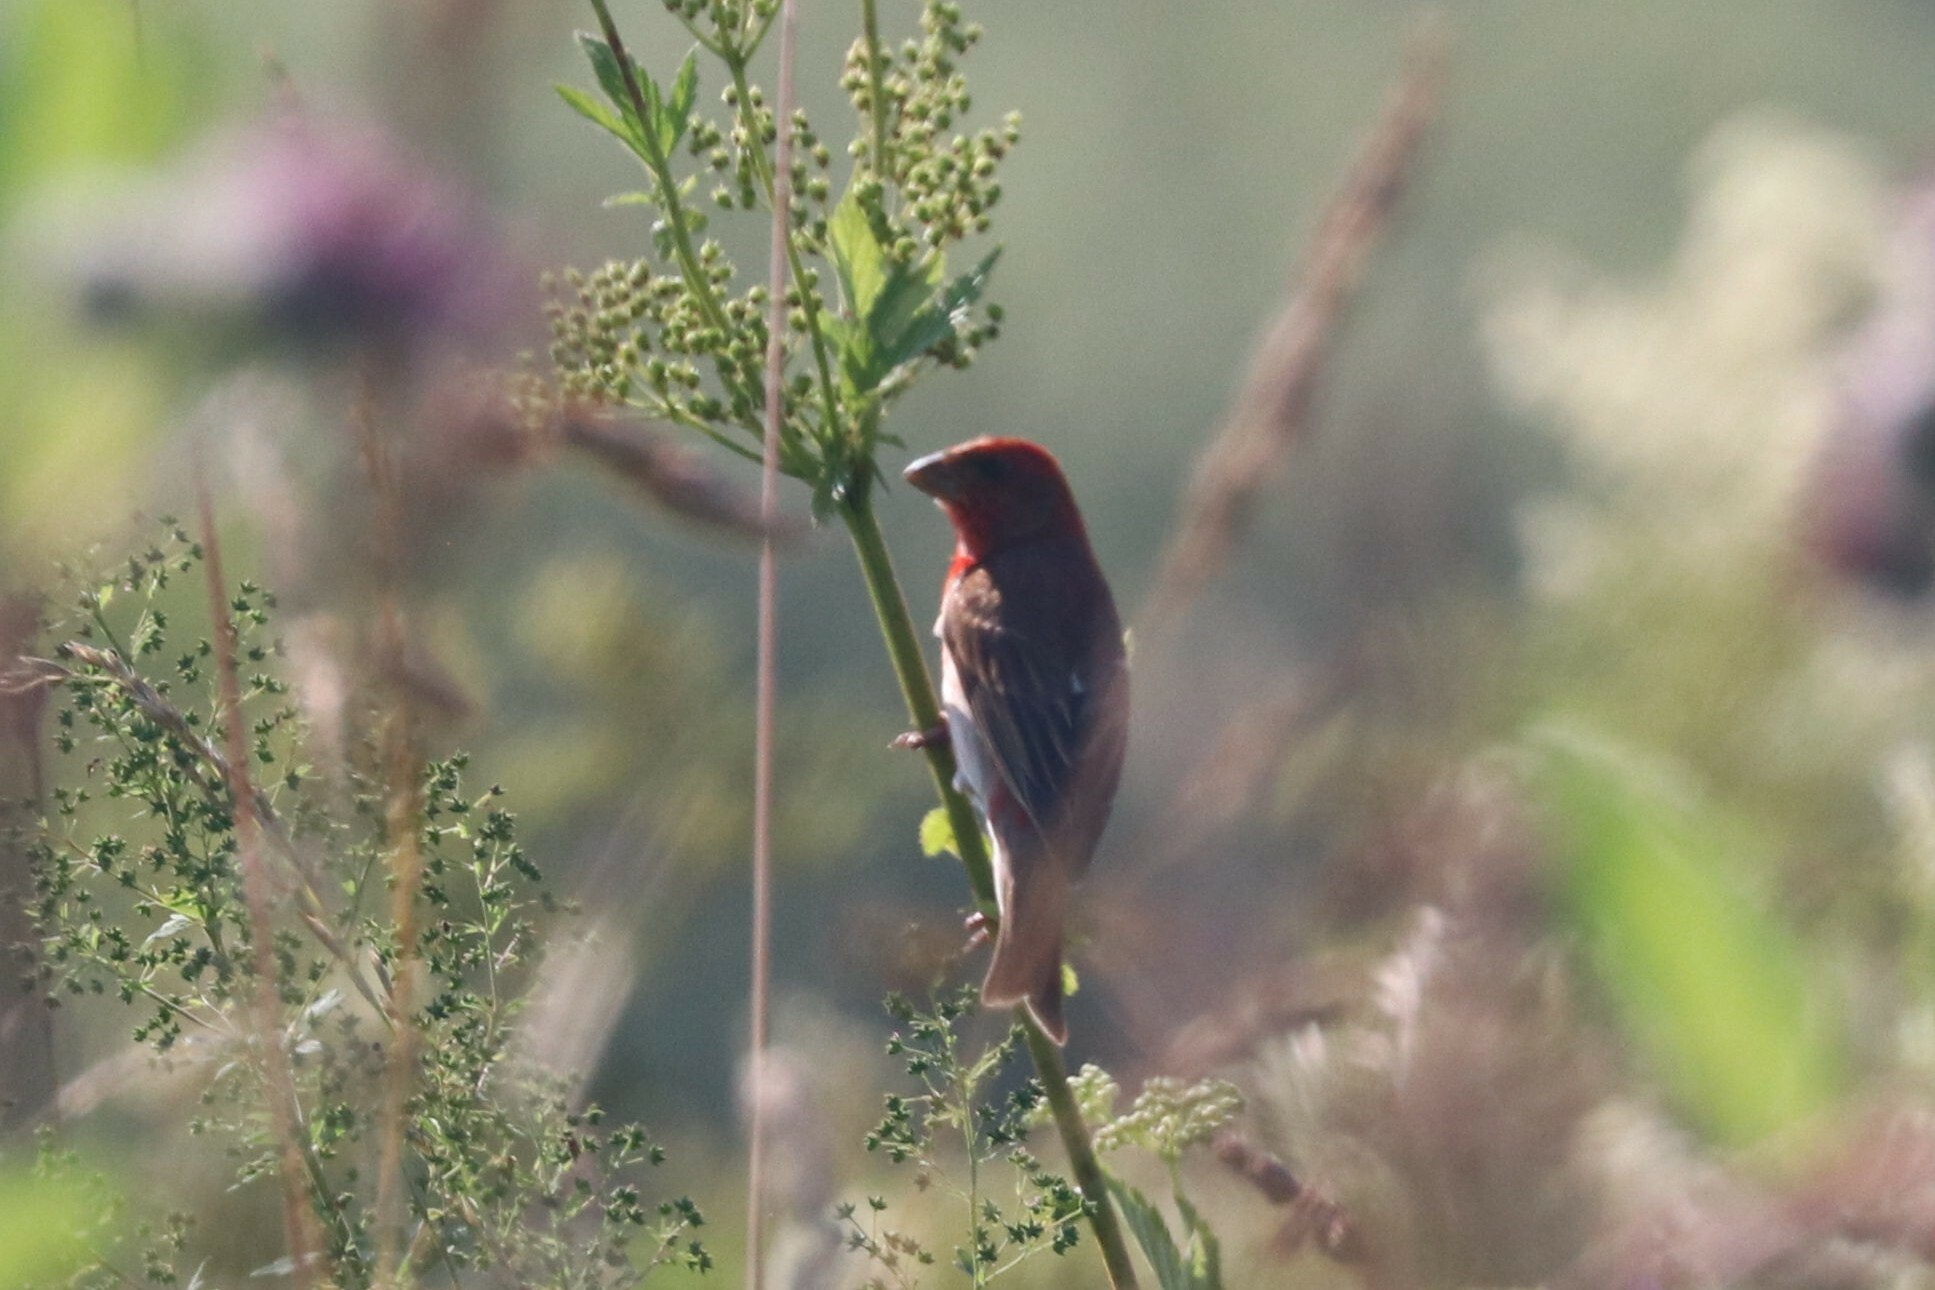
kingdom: Animalia
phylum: Chordata
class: Aves
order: Passeriformes
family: Fringillidae
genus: Carpodacus
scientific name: Carpodacus erythrinus
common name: Common rosefinch
